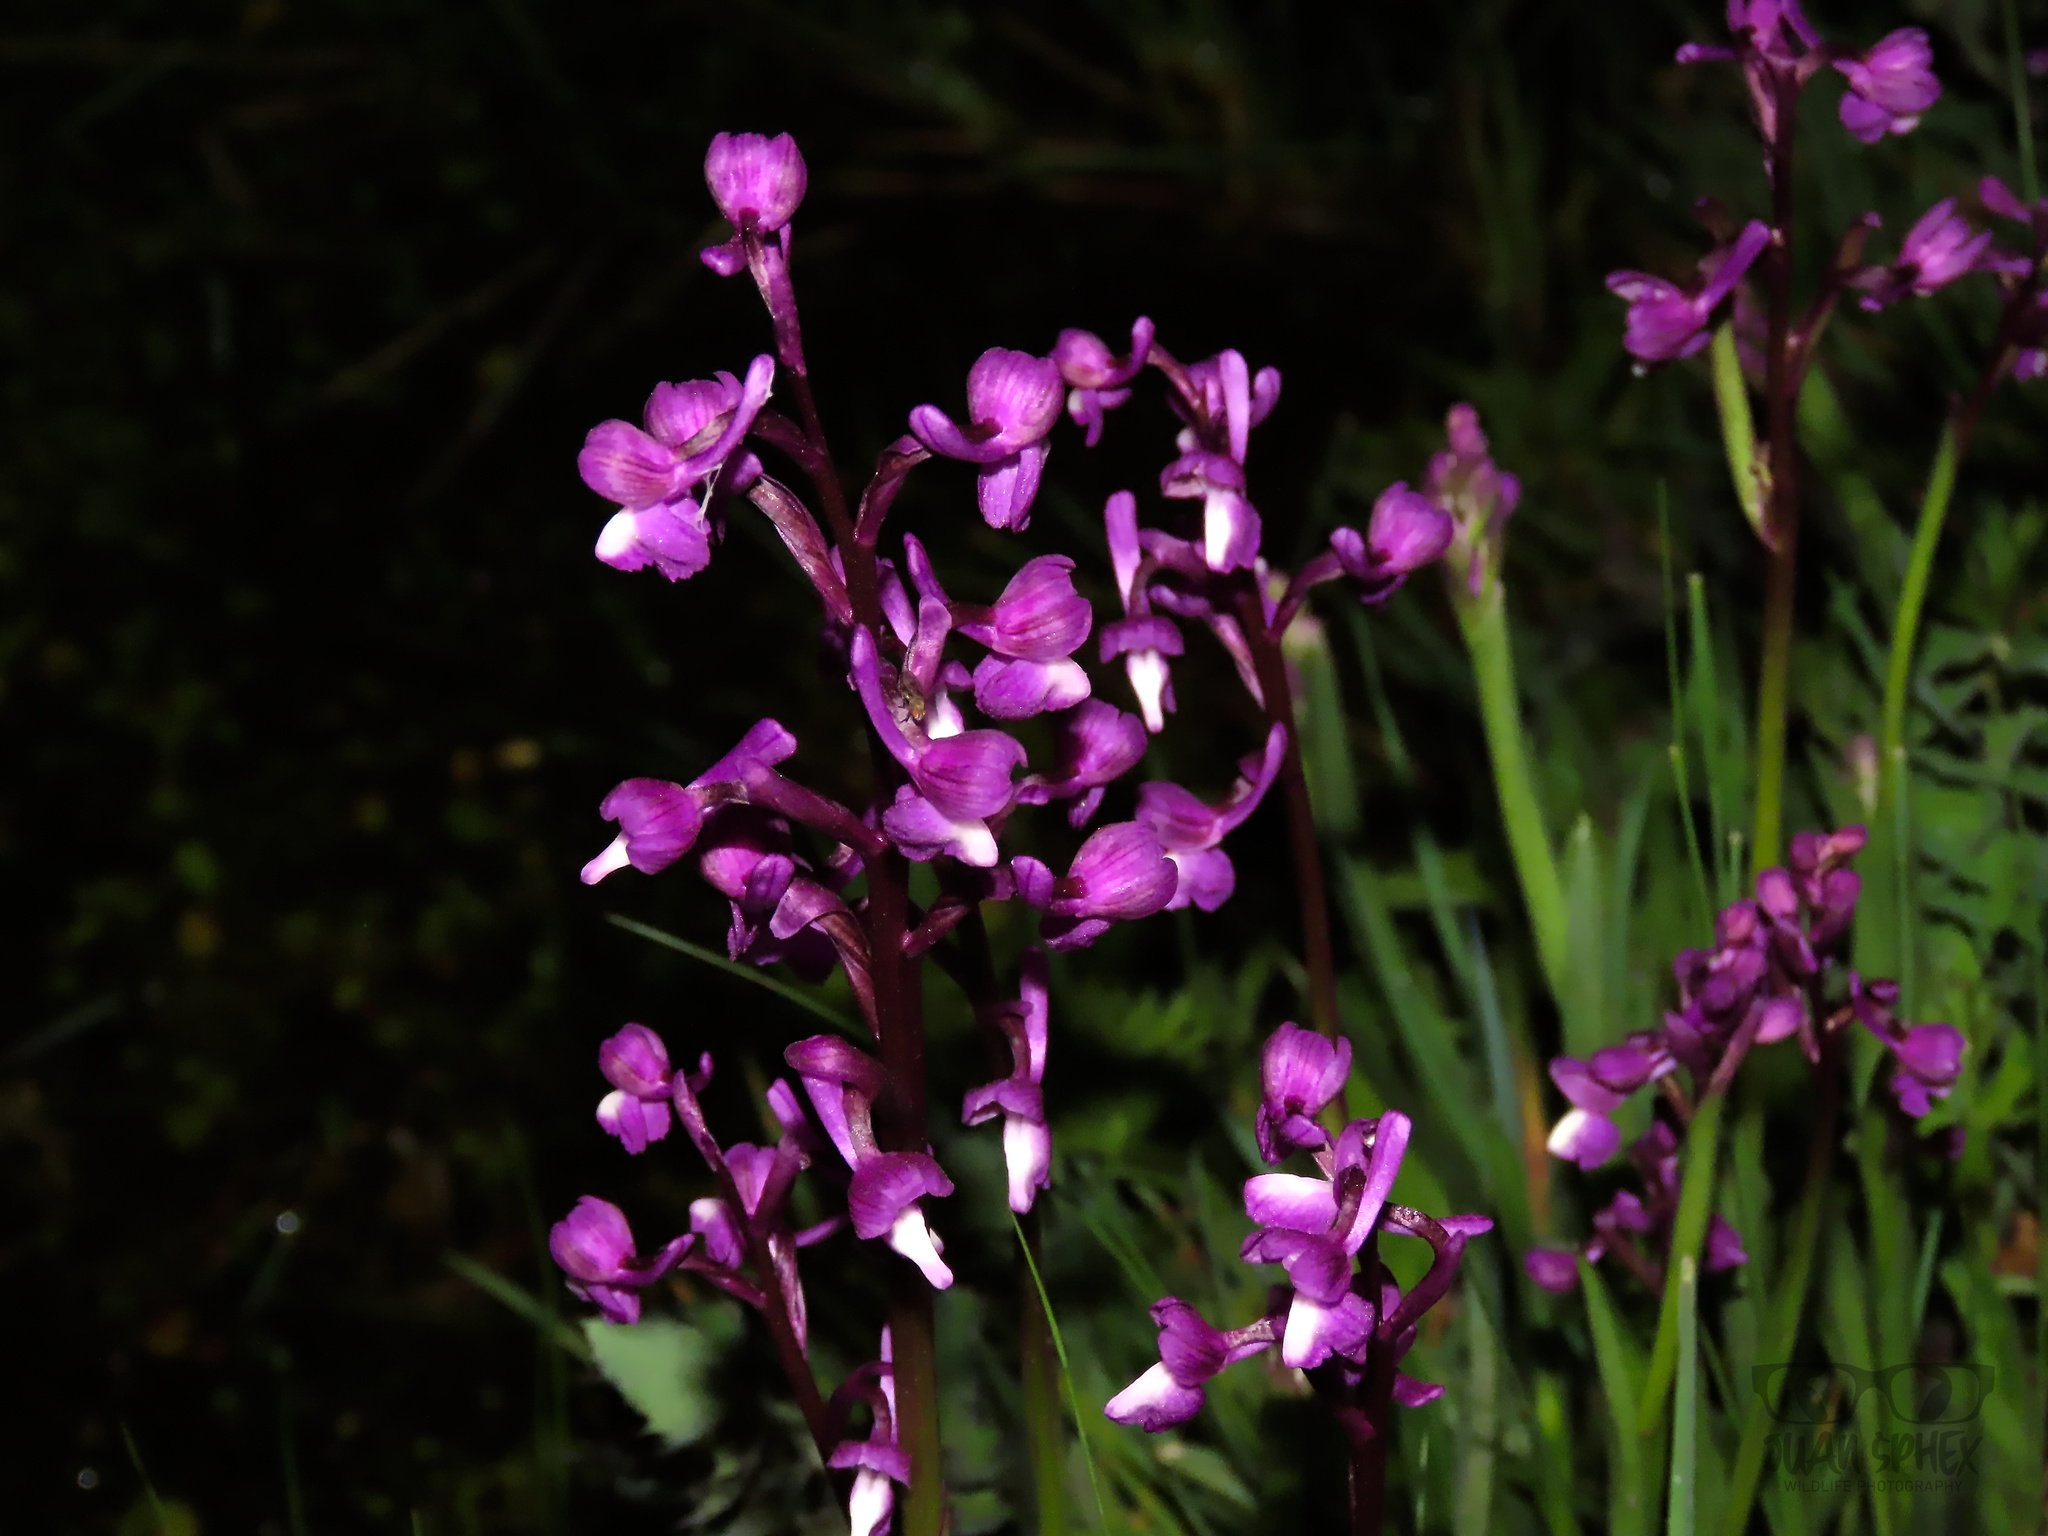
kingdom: Plantae
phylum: Tracheophyta
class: Liliopsida
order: Asparagales
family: Orchidaceae
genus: Anacamptis
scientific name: Anacamptis morio
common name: Green-winged orchid
